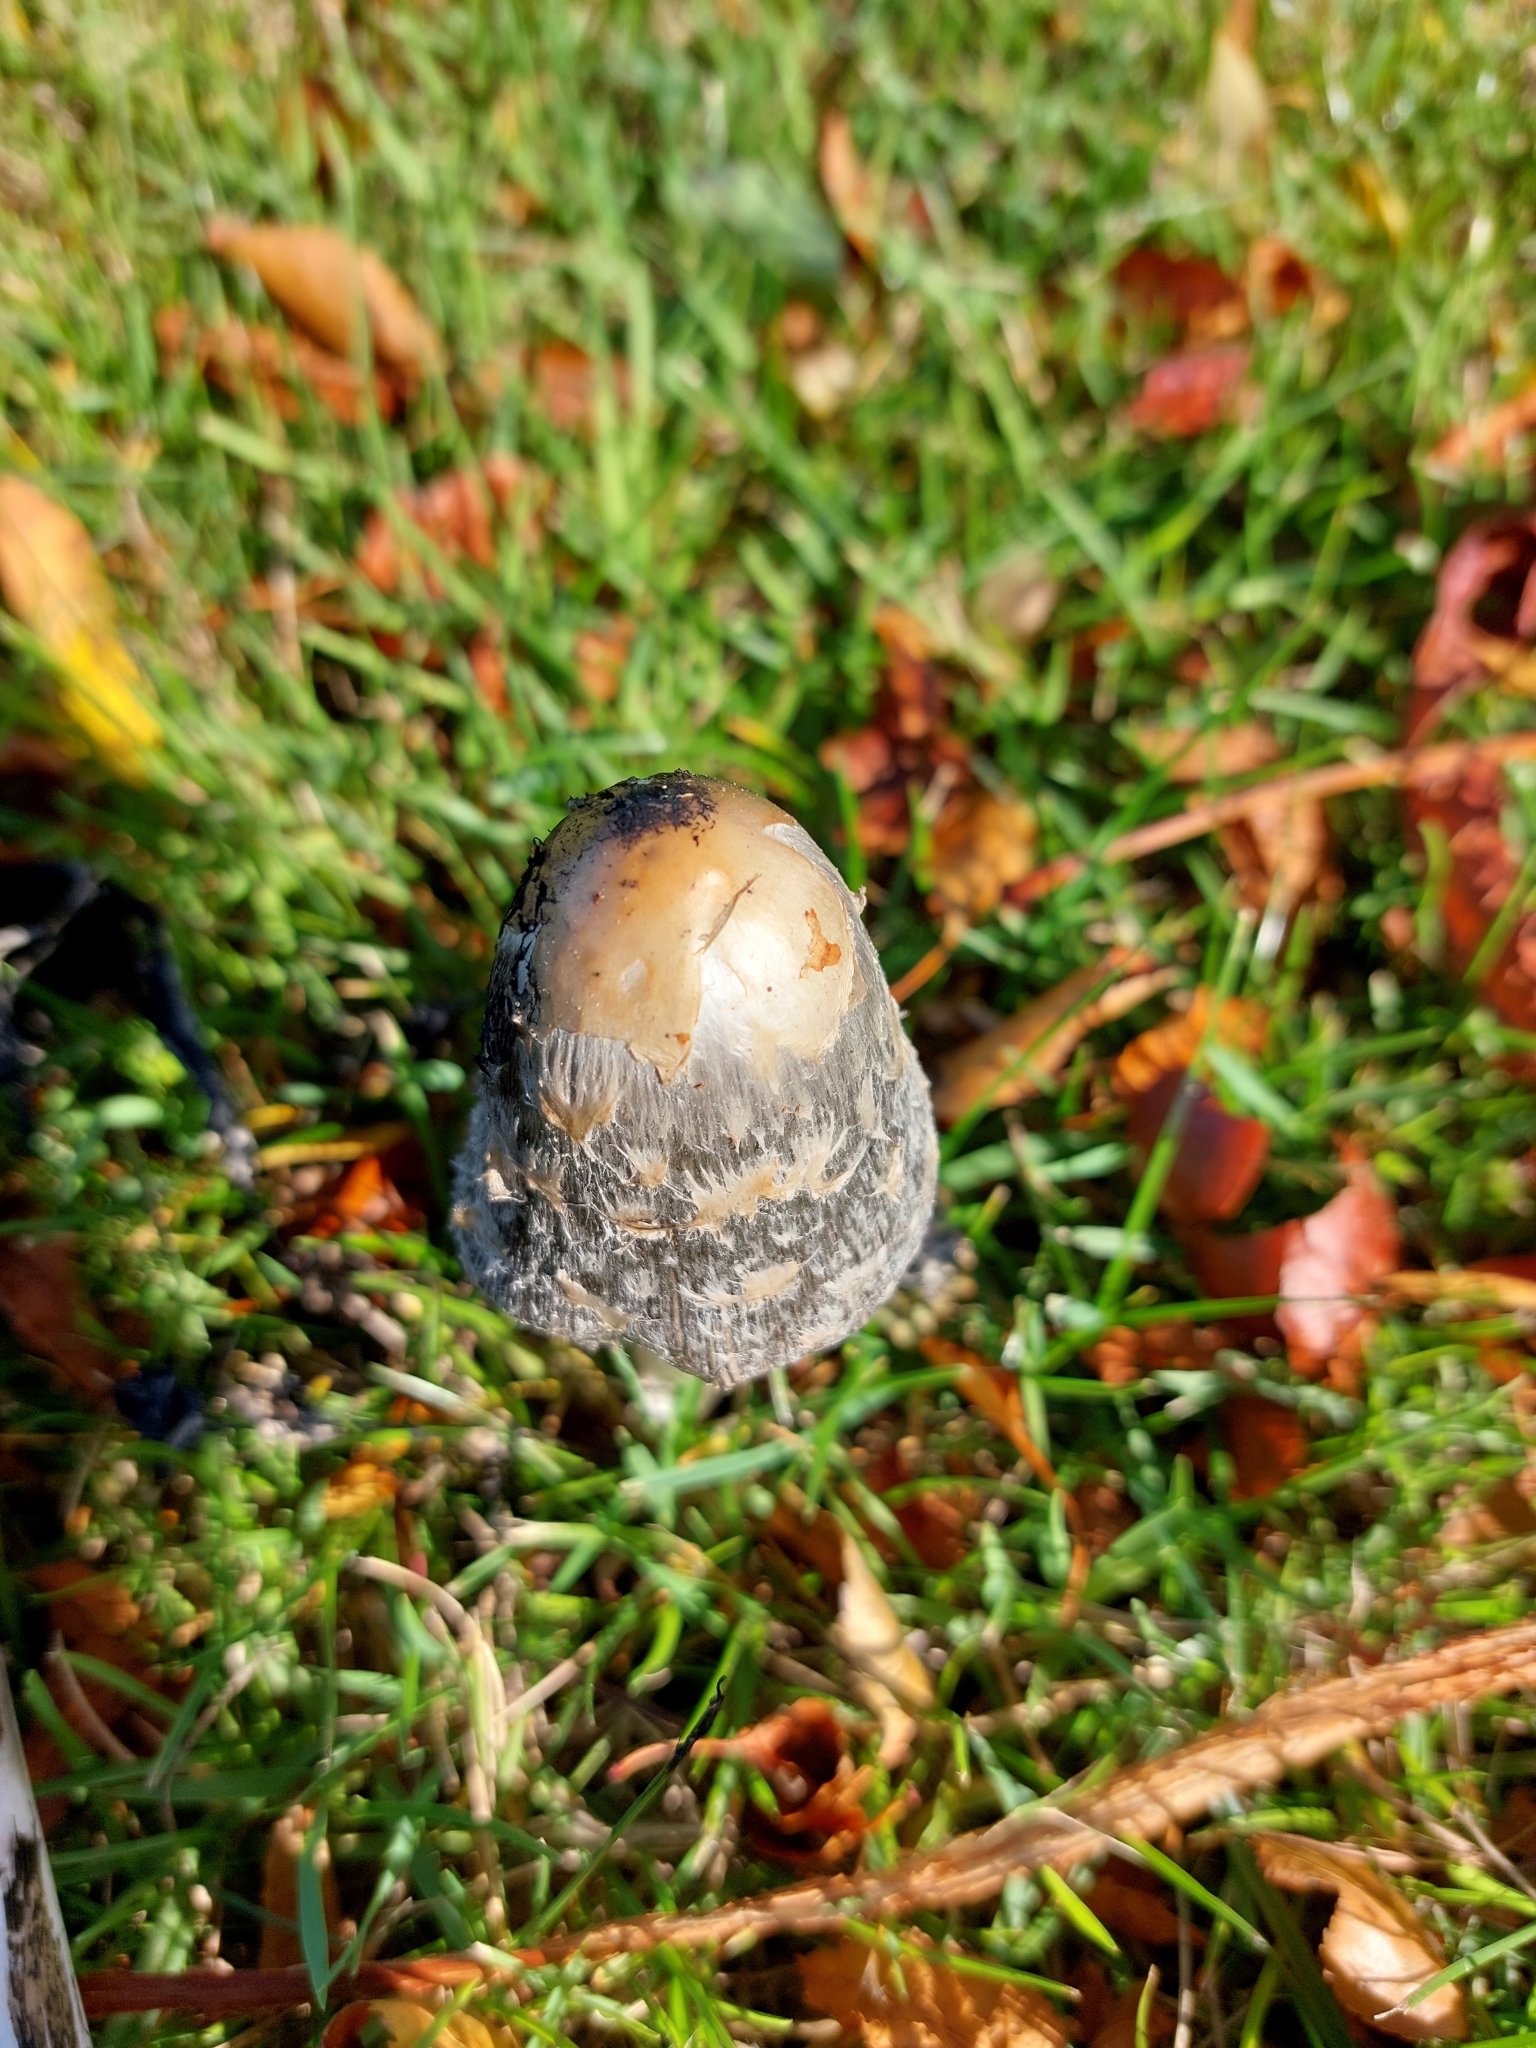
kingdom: Fungi
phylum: Basidiomycota
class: Agaricomycetes
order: Agaricales
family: Agaricaceae
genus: Coprinus
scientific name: Coprinus comatus
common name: Lawyer's wig
